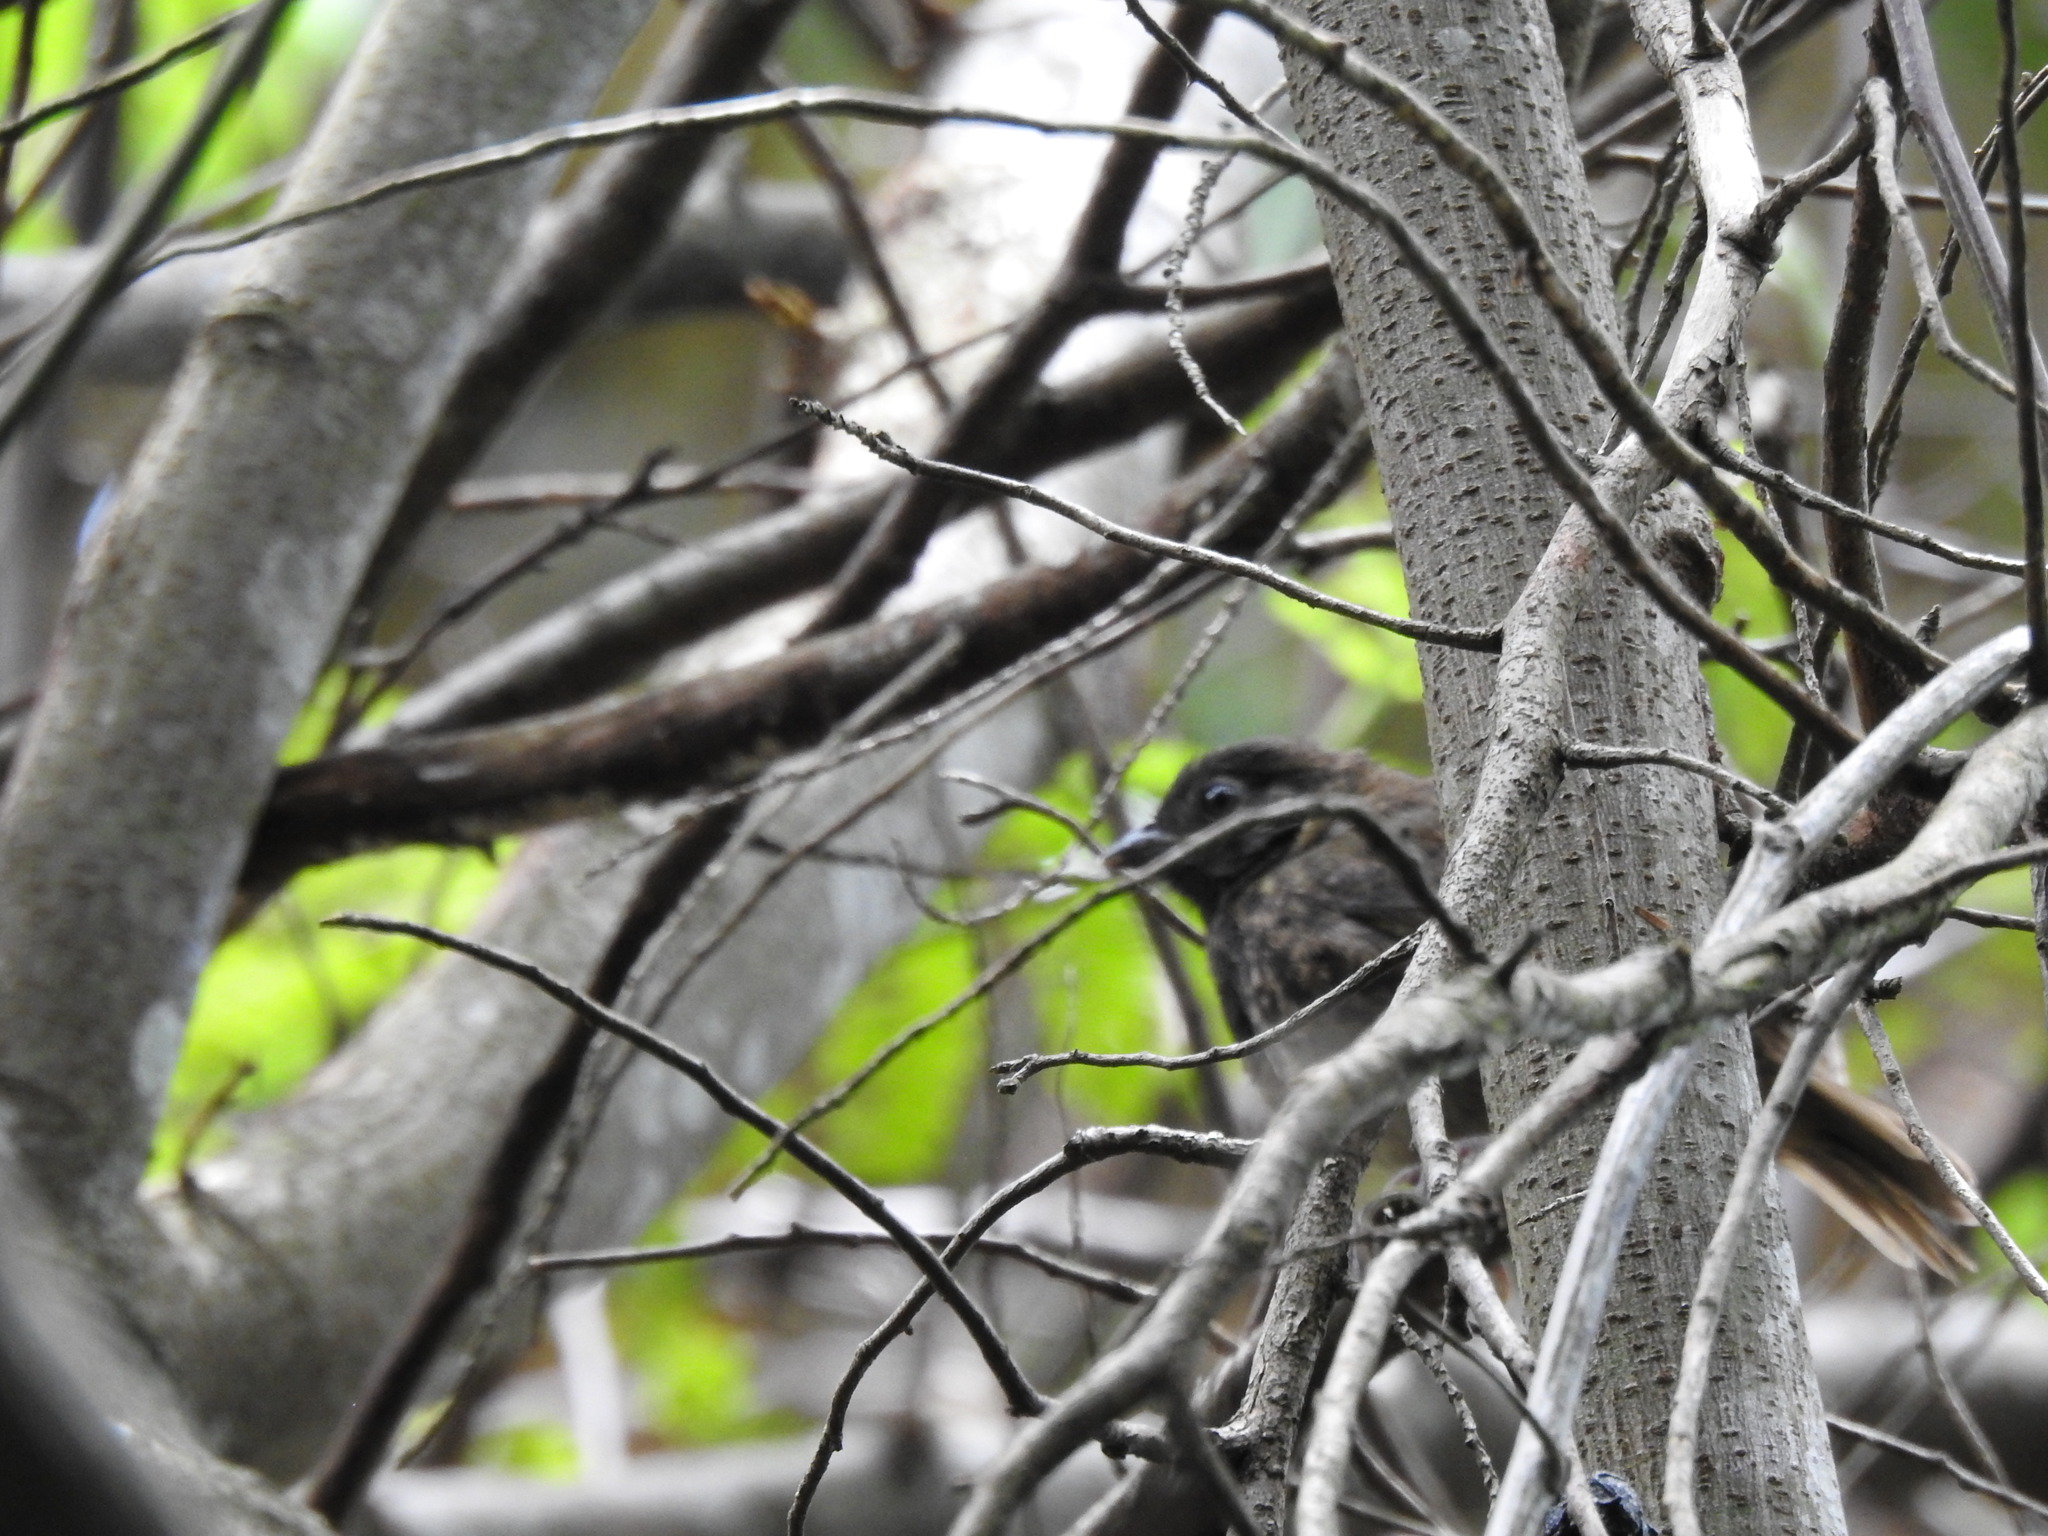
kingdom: Animalia
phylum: Chordata
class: Aves
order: Passeriformes
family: Passerellidae
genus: Melozone
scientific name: Melozone leucotis
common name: White-eared ground-sparrow
